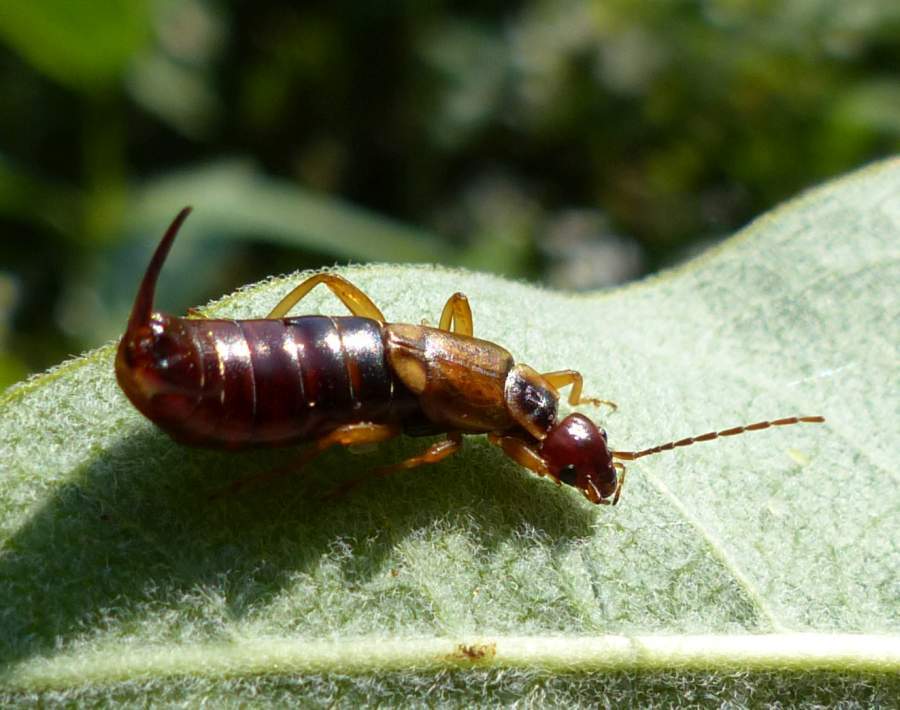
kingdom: Animalia
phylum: Arthropoda
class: Insecta
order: Dermaptera
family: Forficulidae
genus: Forficula
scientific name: Forficula
